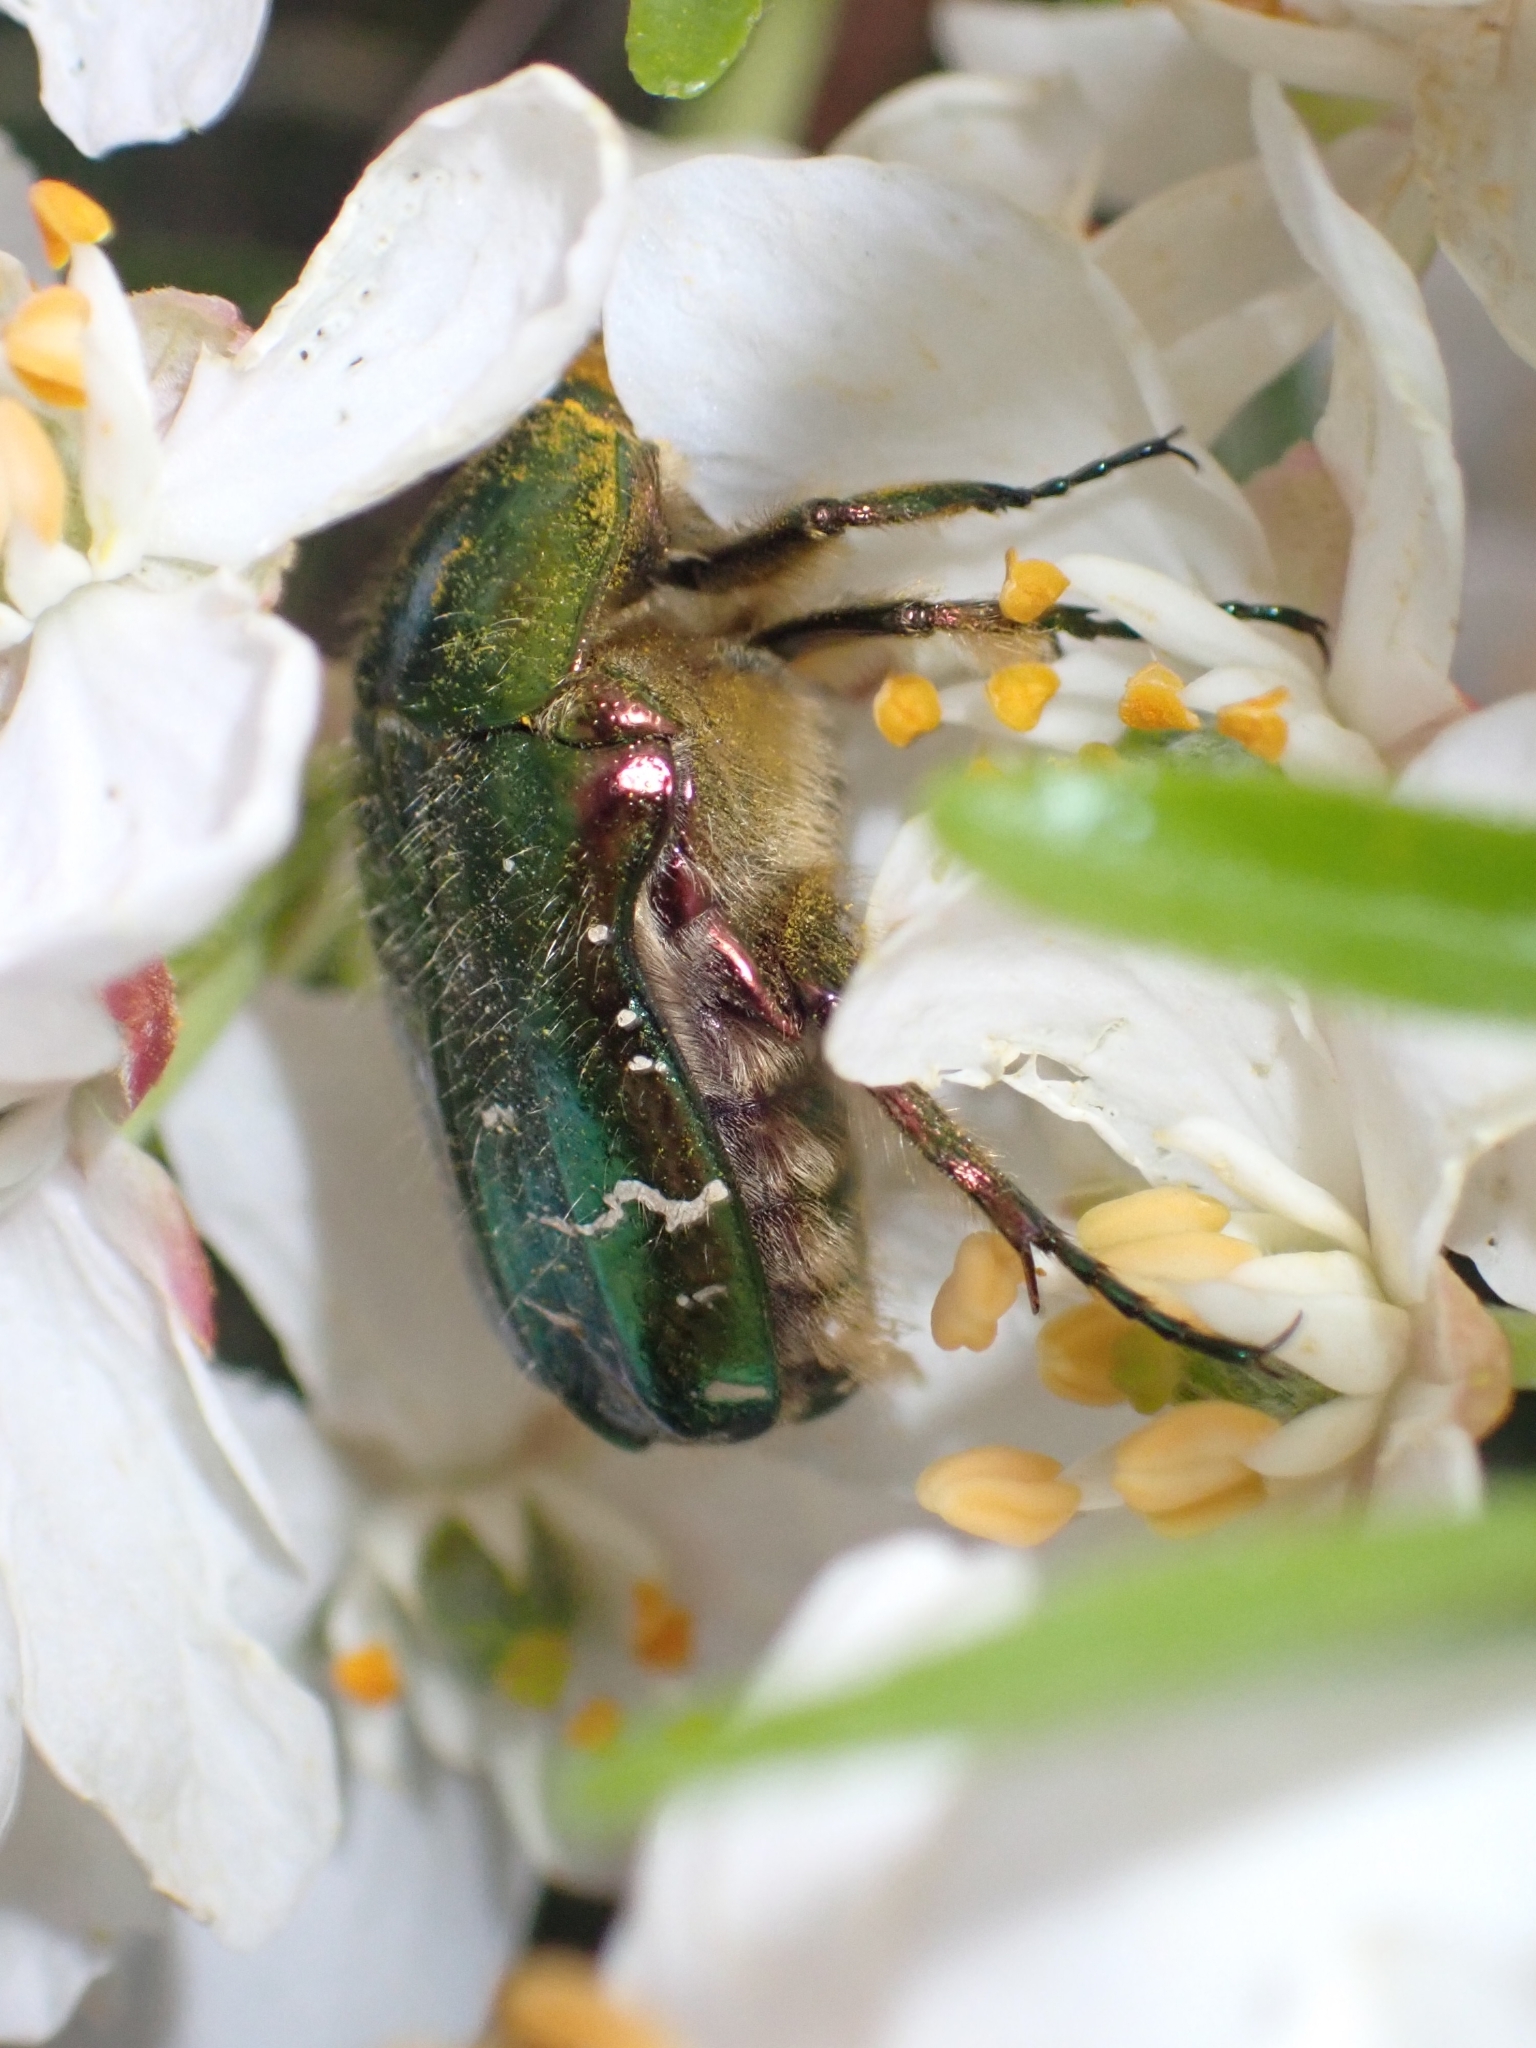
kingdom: Animalia
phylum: Arthropoda
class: Insecta
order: Coleoptera
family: Scarabaeidae
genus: Cetonia
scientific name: Cetonia aurata
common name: Rose chafer
